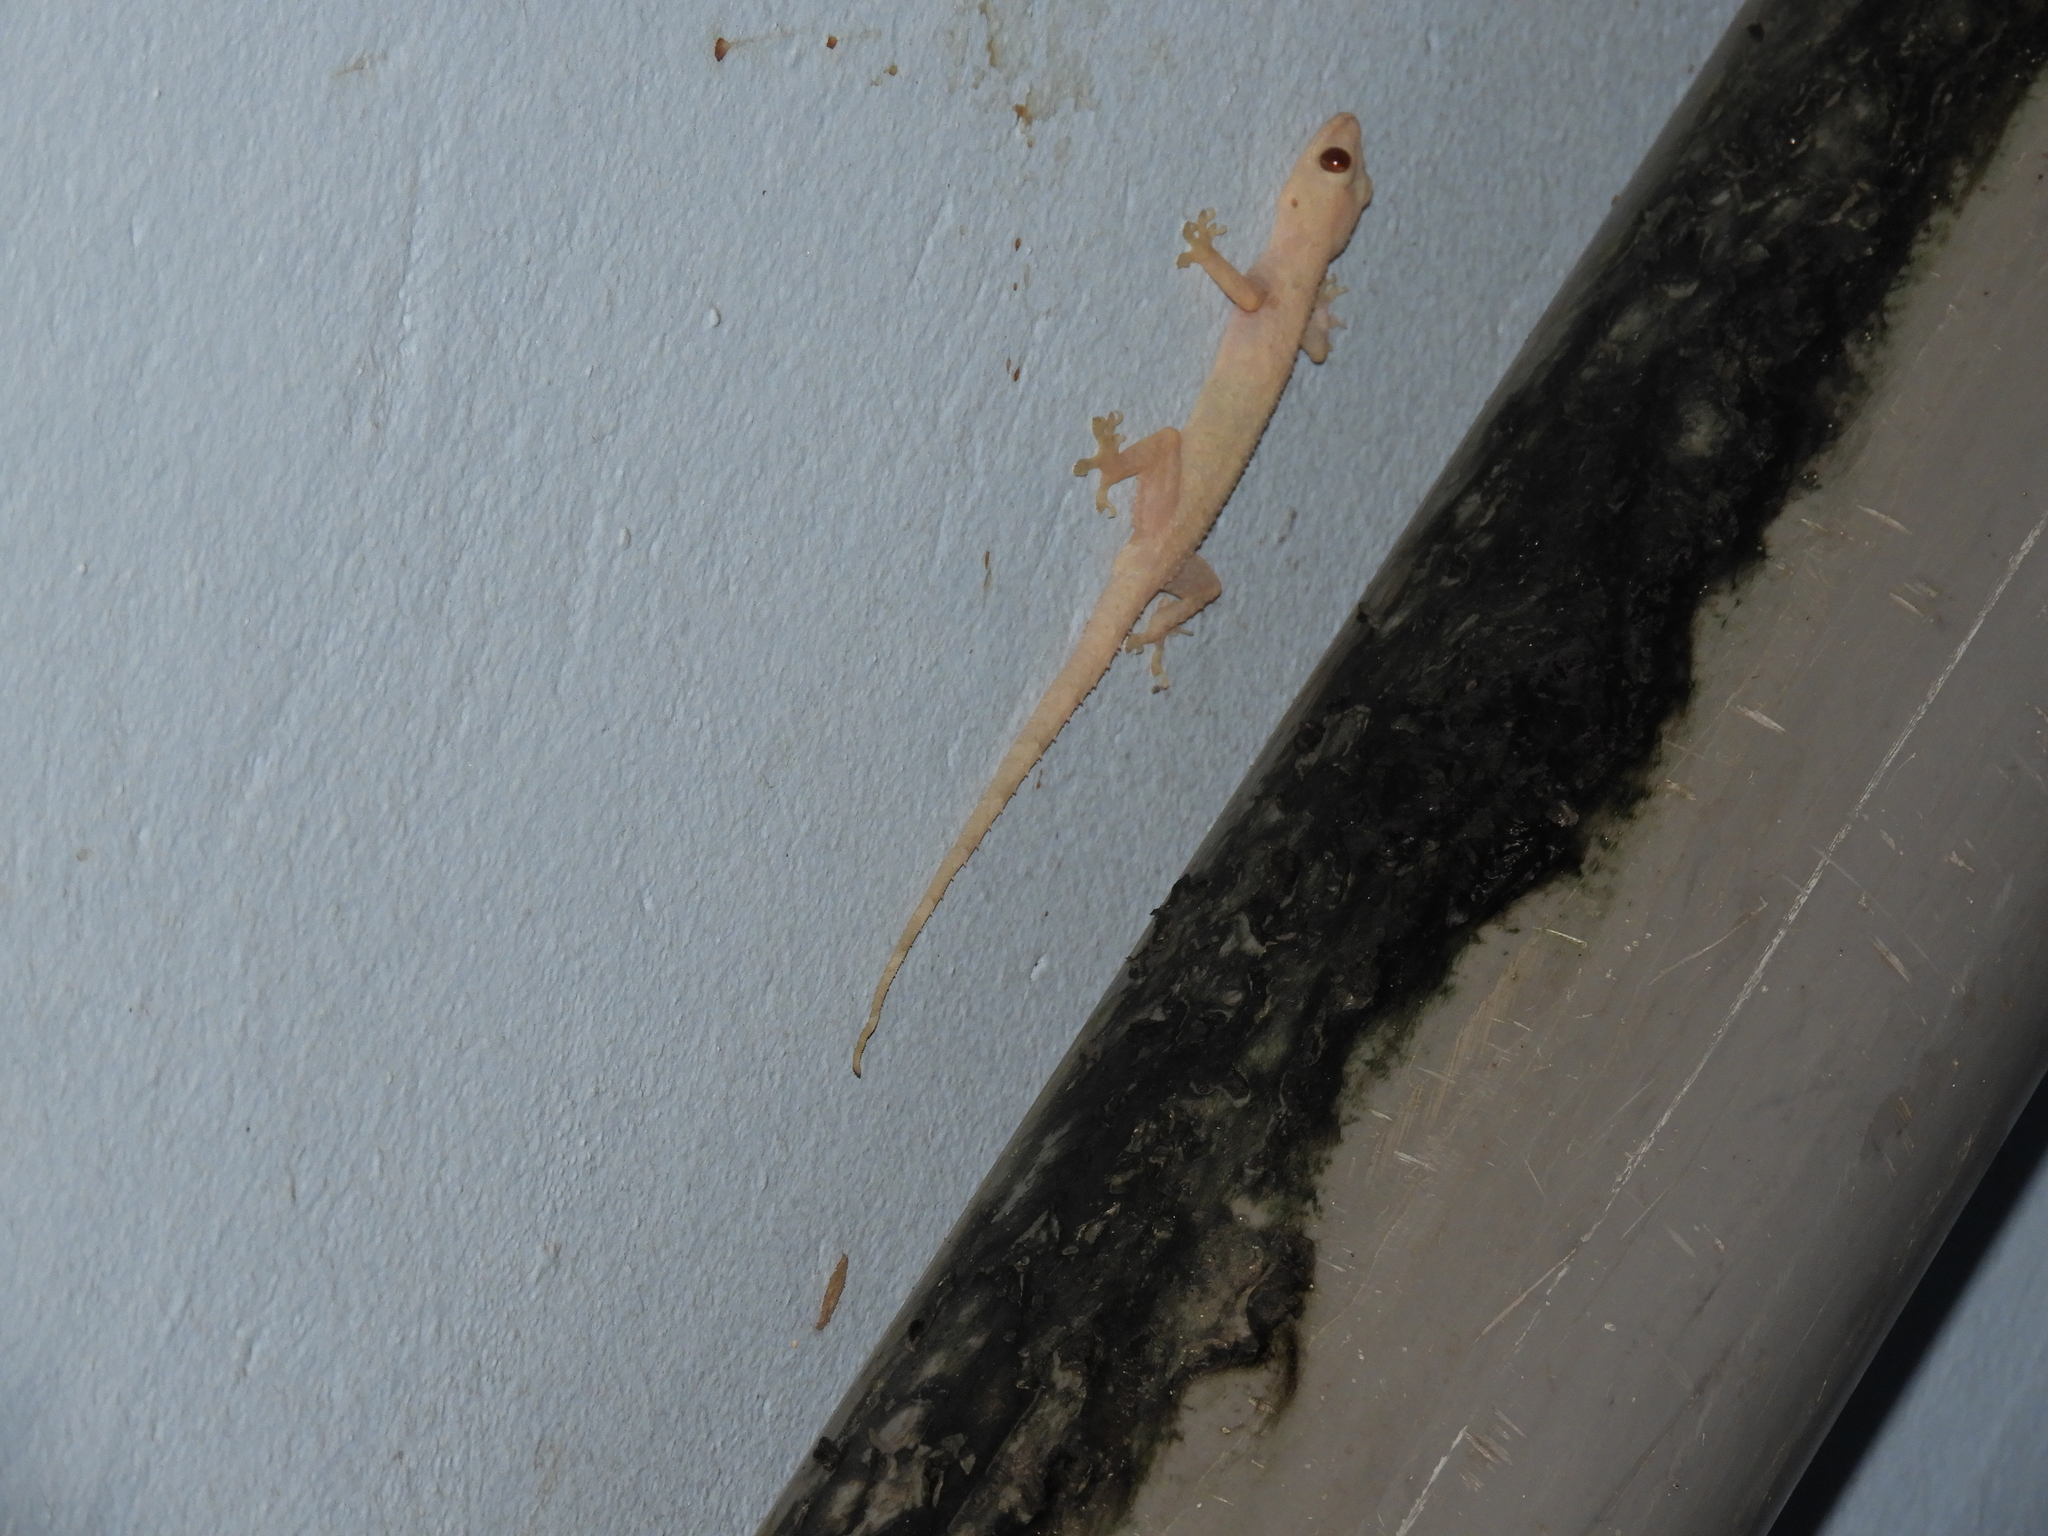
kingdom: Animalia
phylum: Chordata
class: Squamata
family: Gekkonidae
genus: Hemidactylus
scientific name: Hemidactylus mabouia
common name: House gecko
